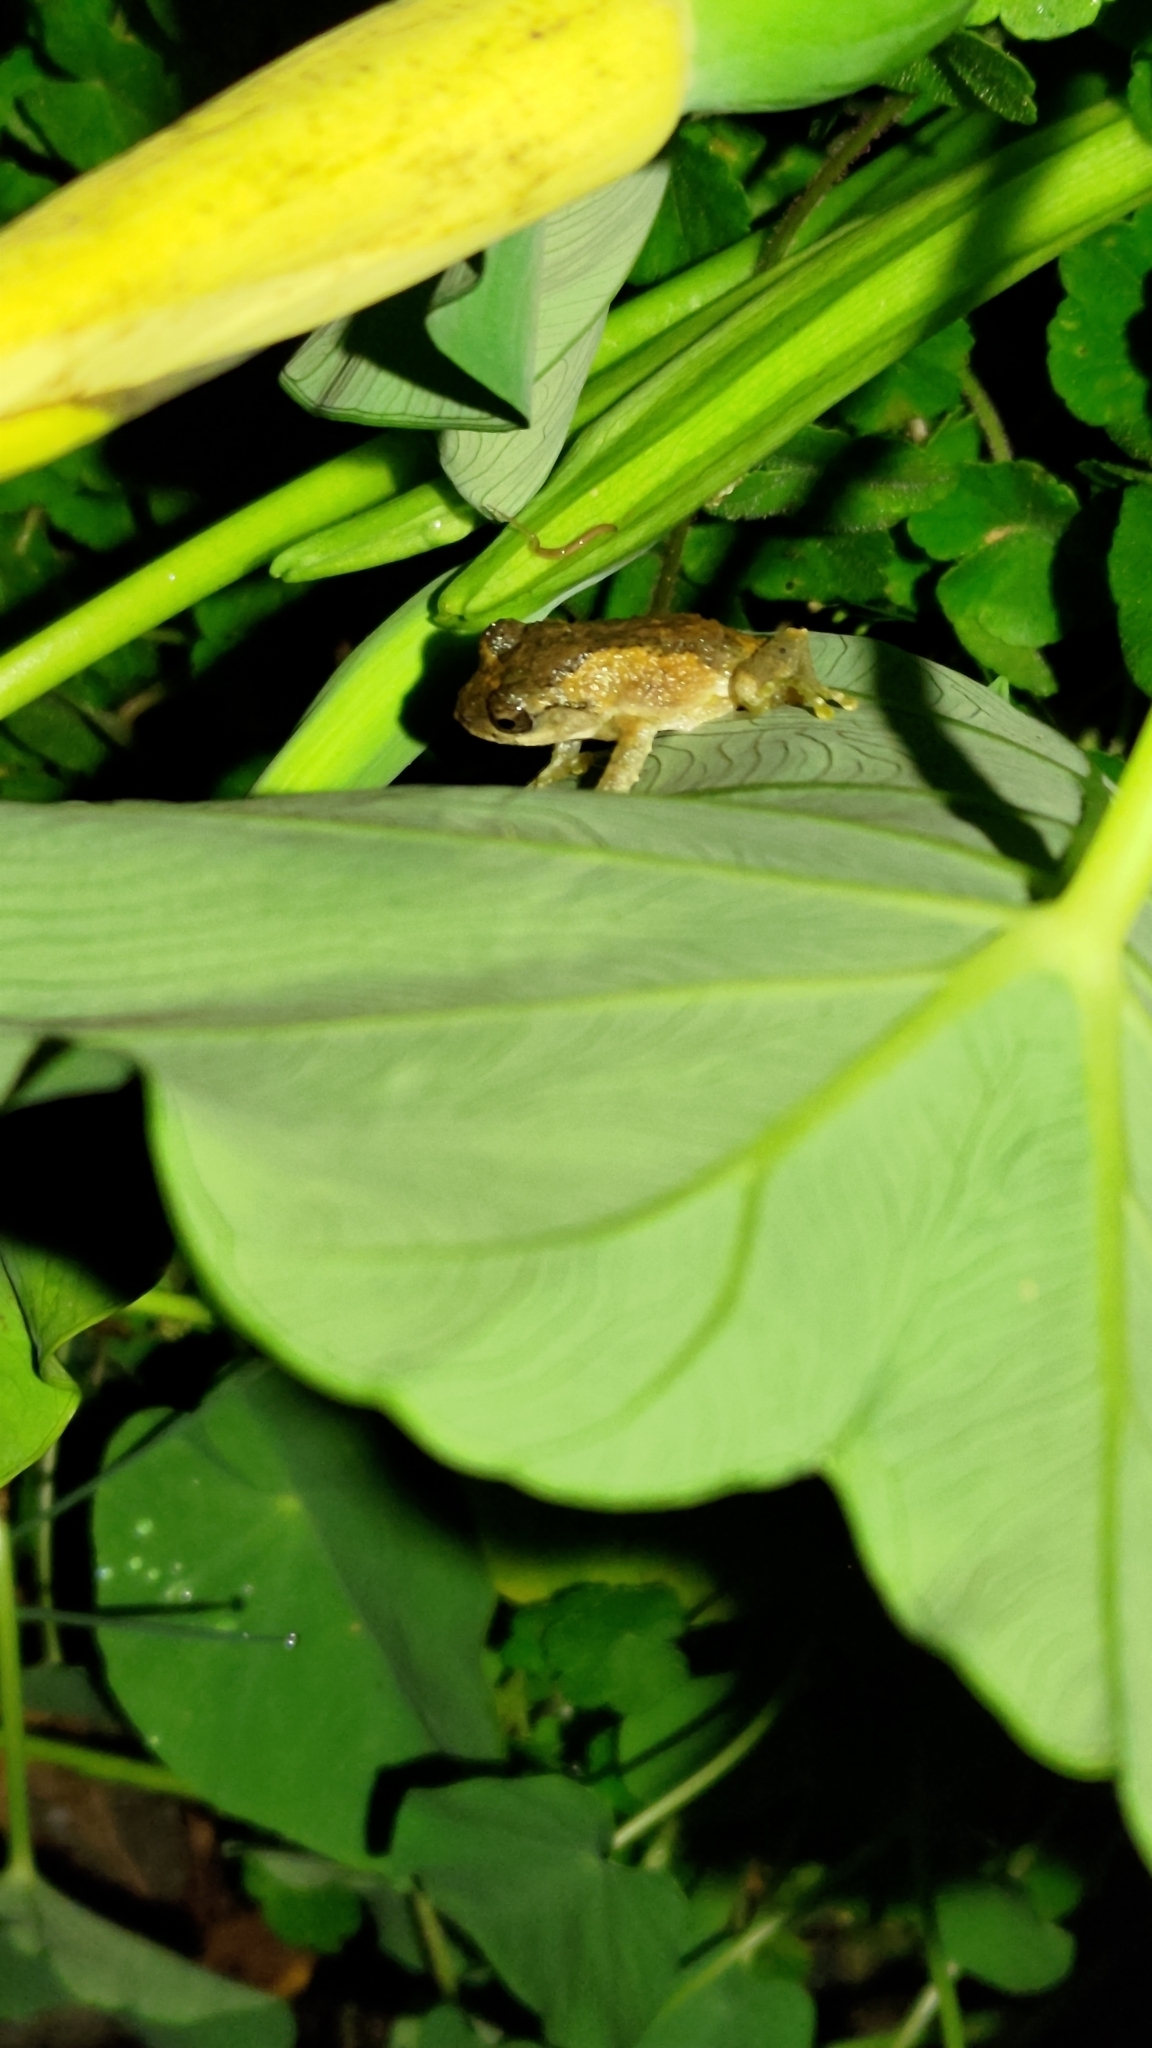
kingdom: Animalia
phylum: Chordata
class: Amphibia
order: Anura
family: Rhacophoridae
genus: Kurixalus
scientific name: Kurixalus idiootocus
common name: Temple treefrog
